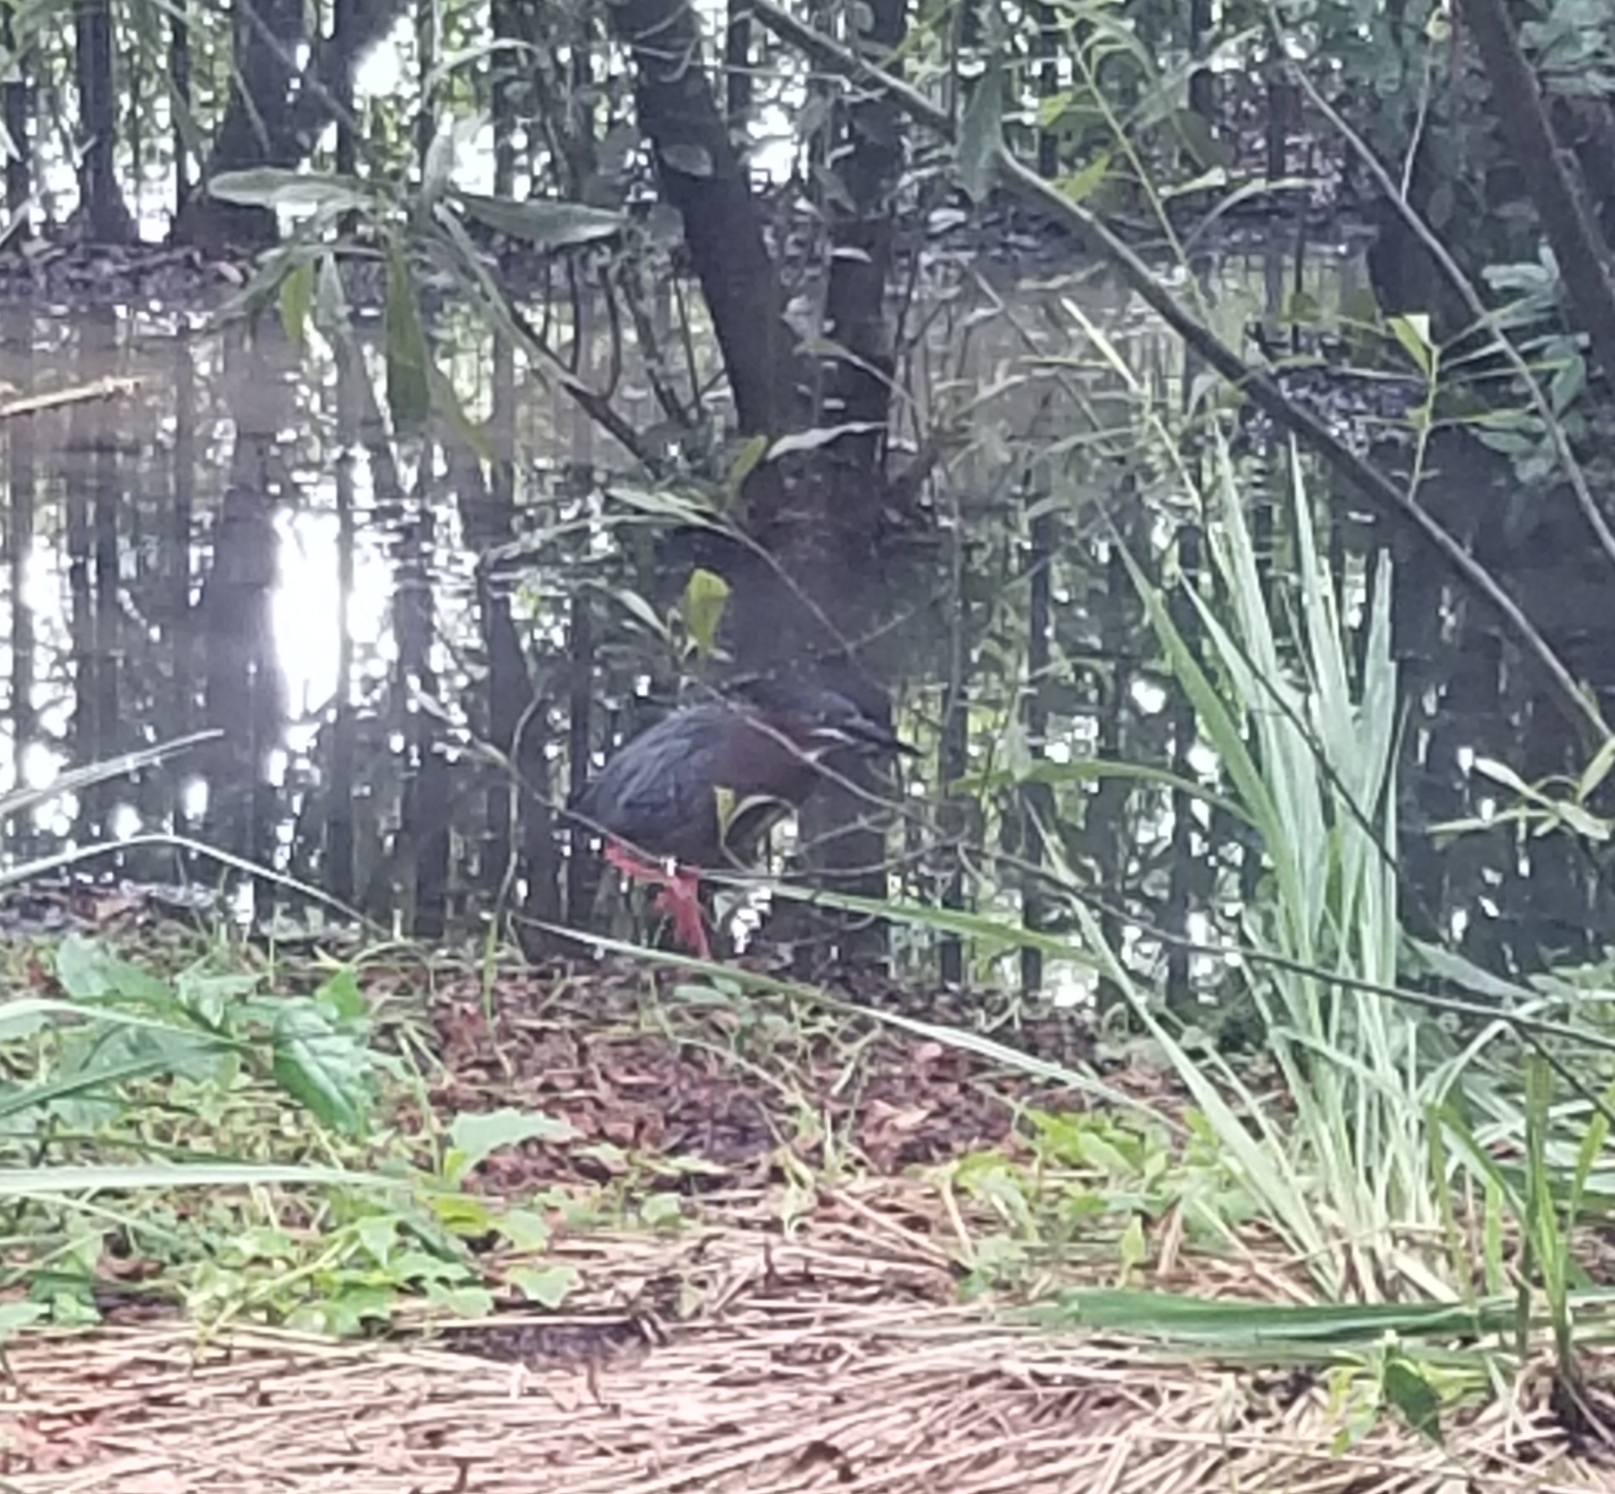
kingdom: Animalia
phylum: Chordata
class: Aves
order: Pelecaniformes
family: Ardeidae
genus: Butorides
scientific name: Butorides virescens
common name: Green heron
